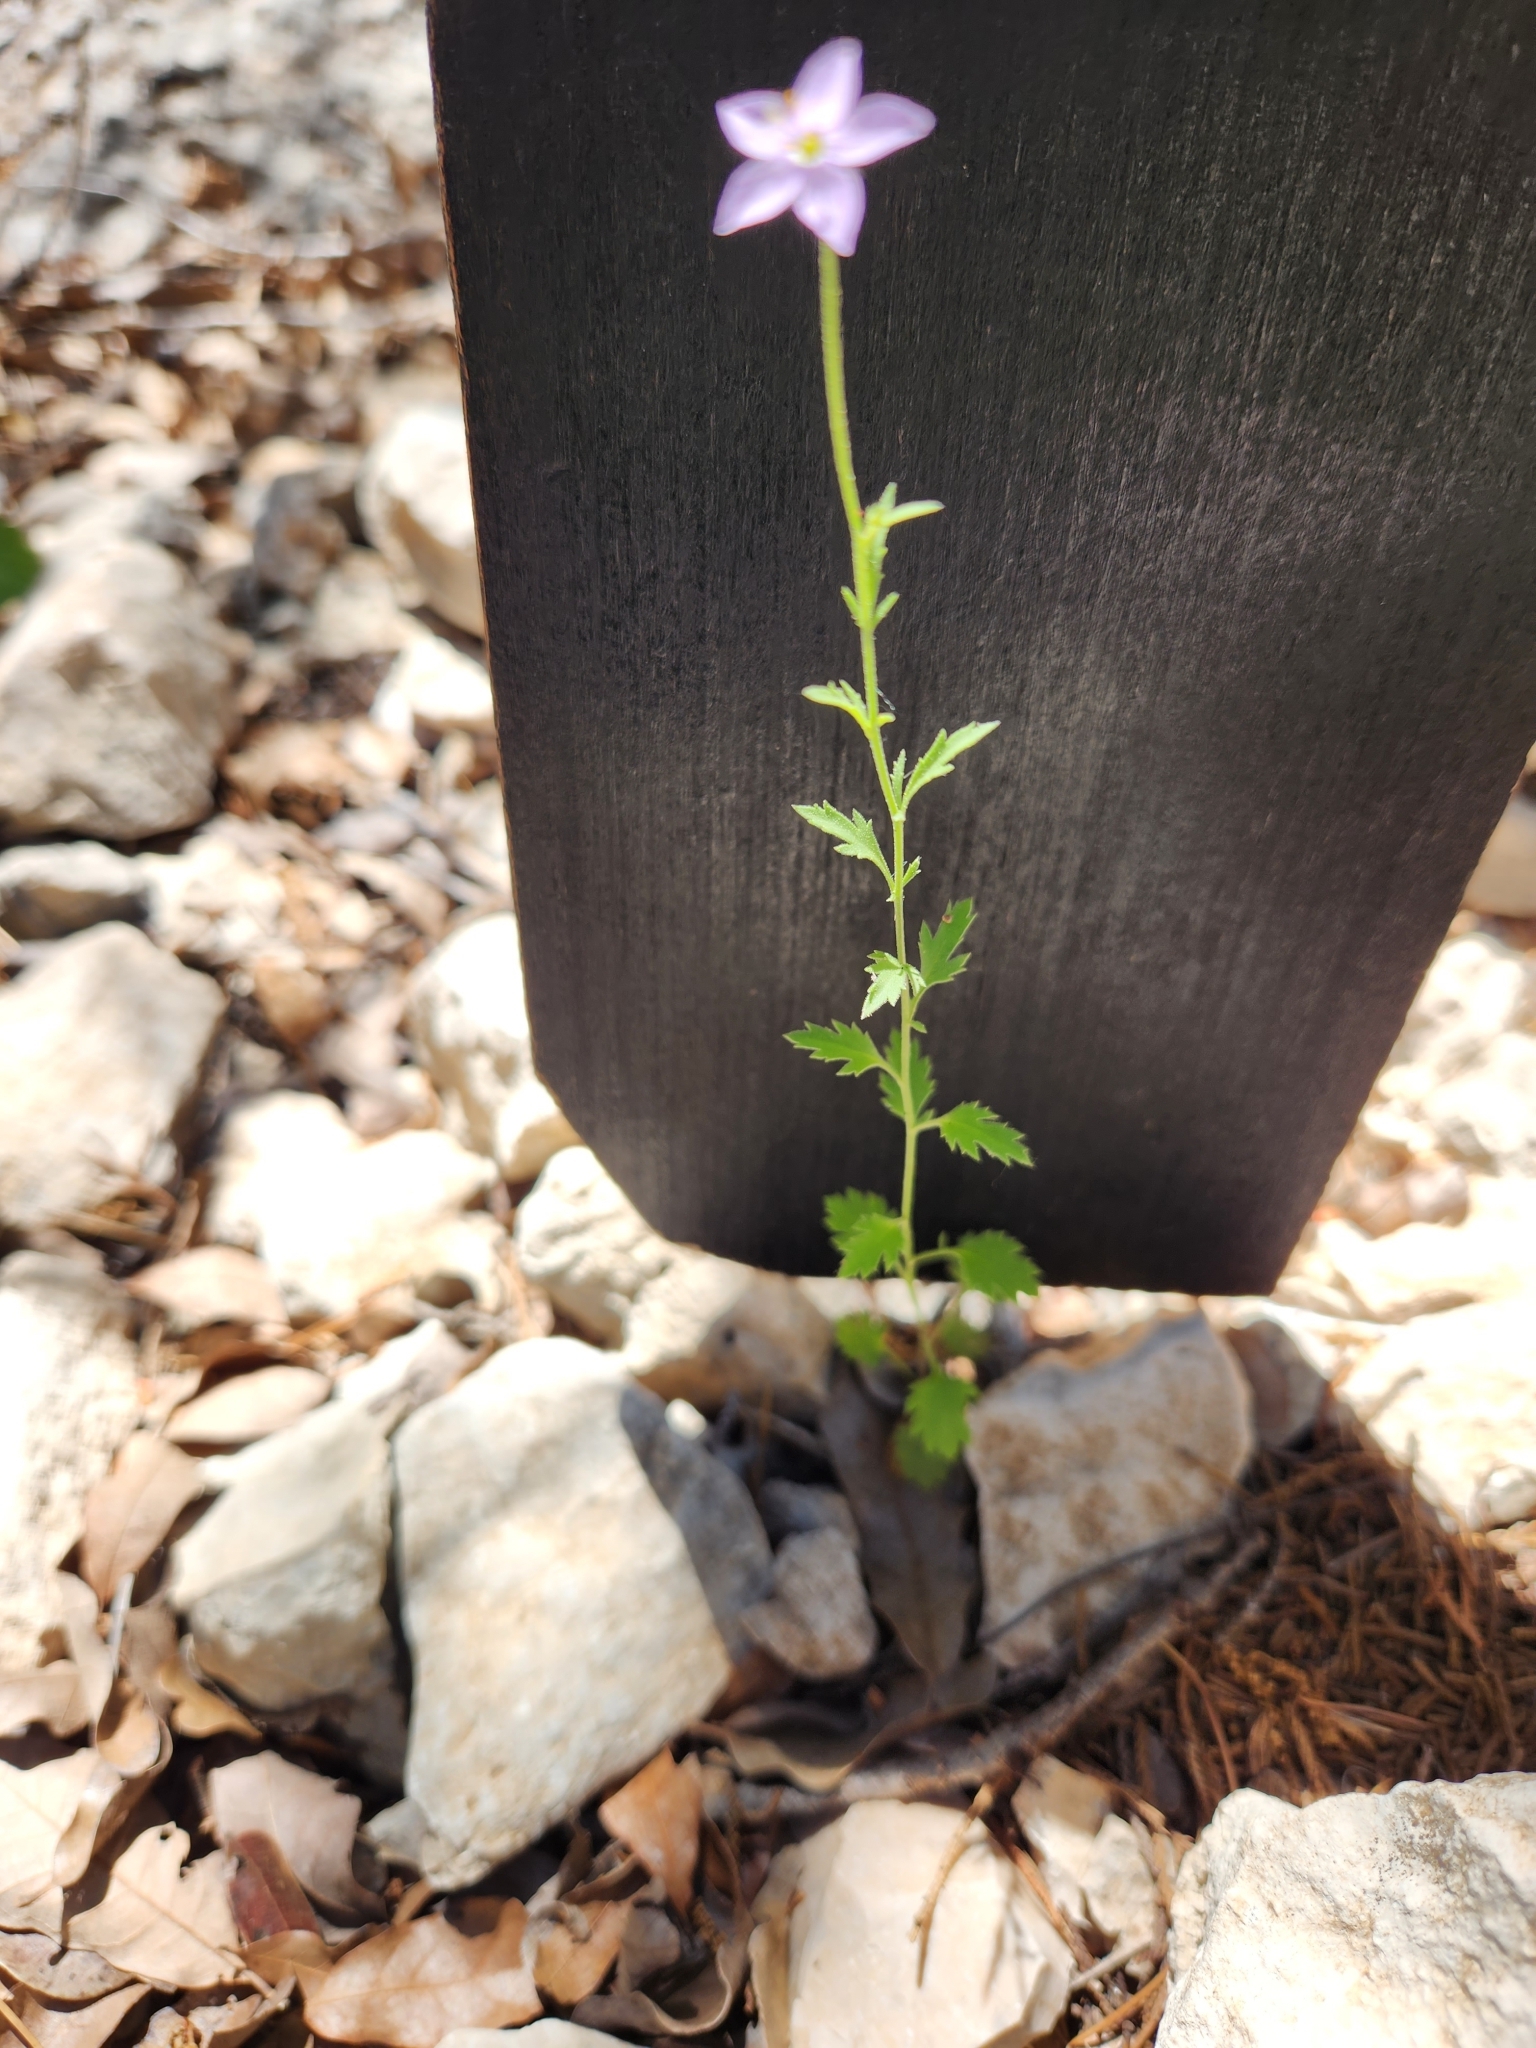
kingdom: Plantae
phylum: Tracheophyta
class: Magnoliopsida
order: Ericales
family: Polemoniaceae
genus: Giliastrum
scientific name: Giliastrum incisum
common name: Splitleaf gilia
